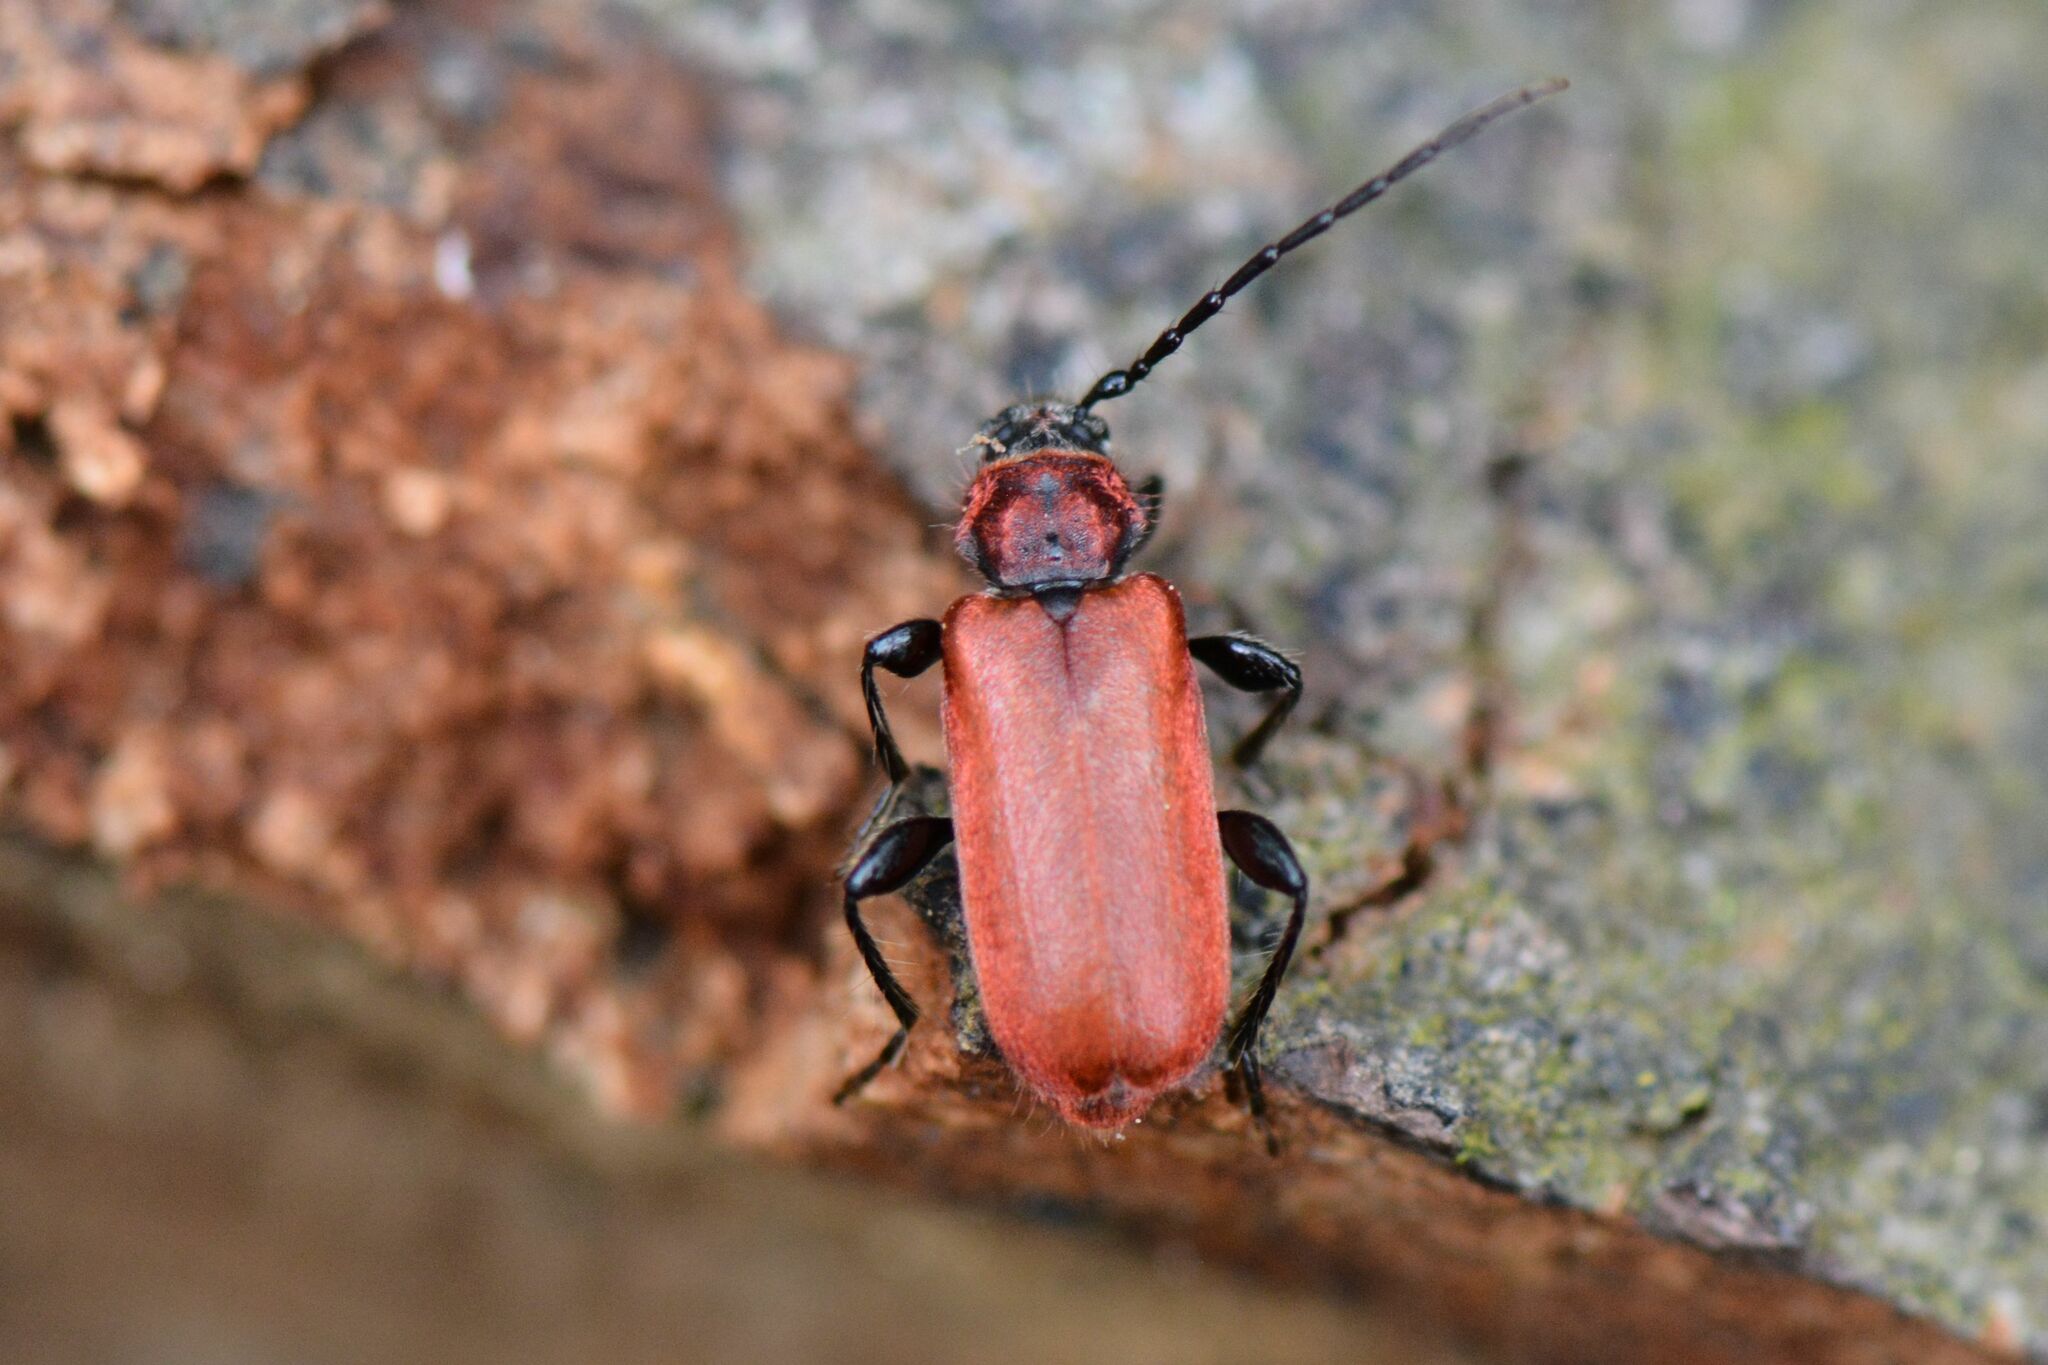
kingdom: Animalia
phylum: Arthropoda
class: Insecta
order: Coleoptera
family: Cerambycidae
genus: Pyrrhidium
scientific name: Pyrrhidium sanguineum
